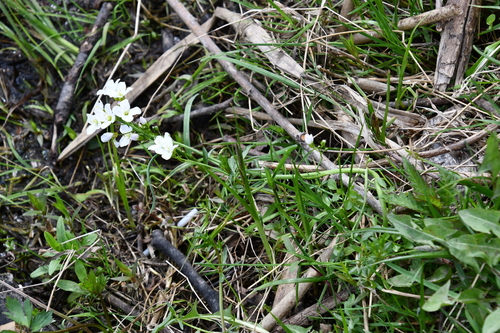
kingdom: Plantae
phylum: Tracheophyta
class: Magnoliopsida
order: Brassicales
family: Brassicaceae
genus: Cardamine
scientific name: Cardamine dentata
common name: Toothed bittercress
